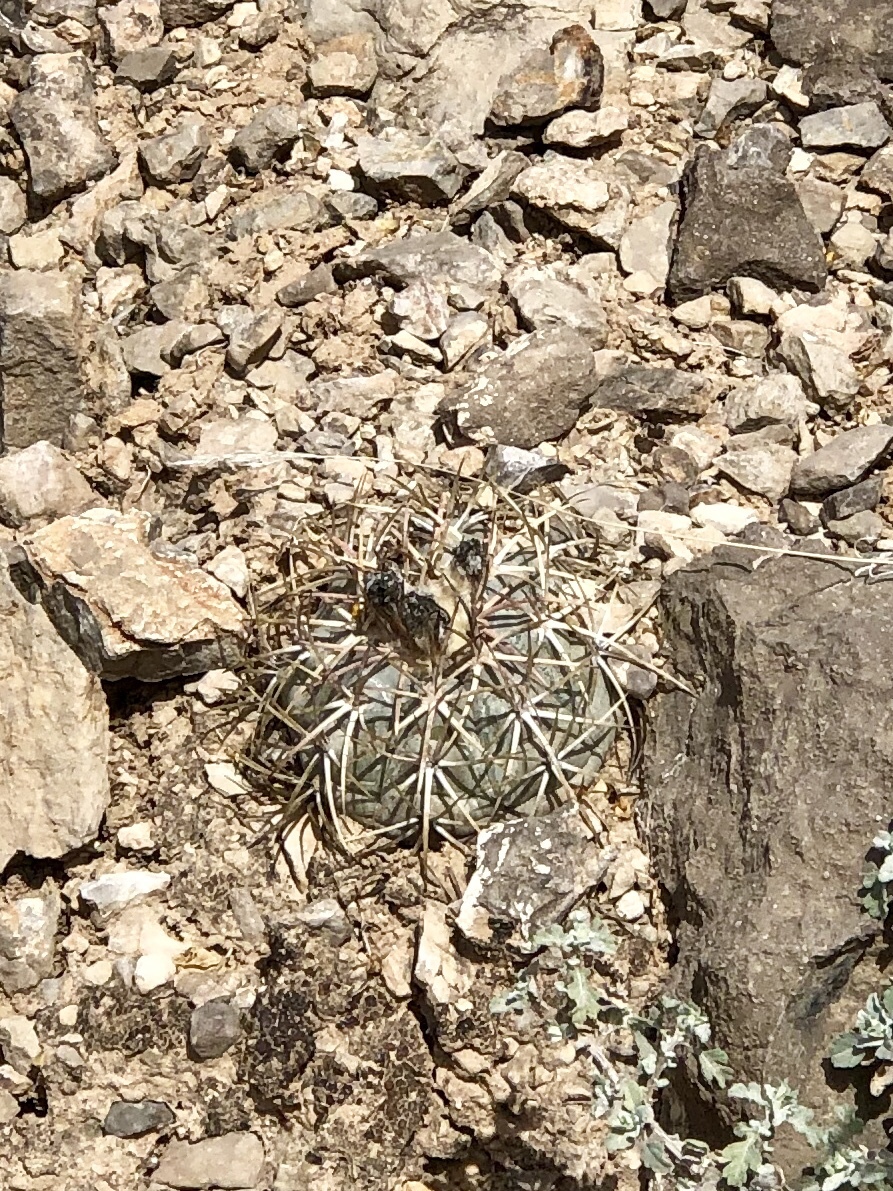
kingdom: Plantae
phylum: Tracheophyta
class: Magnoliopsida
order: Caryophyllales
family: Cactaceae
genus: Echinocactus
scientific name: Echinocactus horizonthalonius
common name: Devilshead
